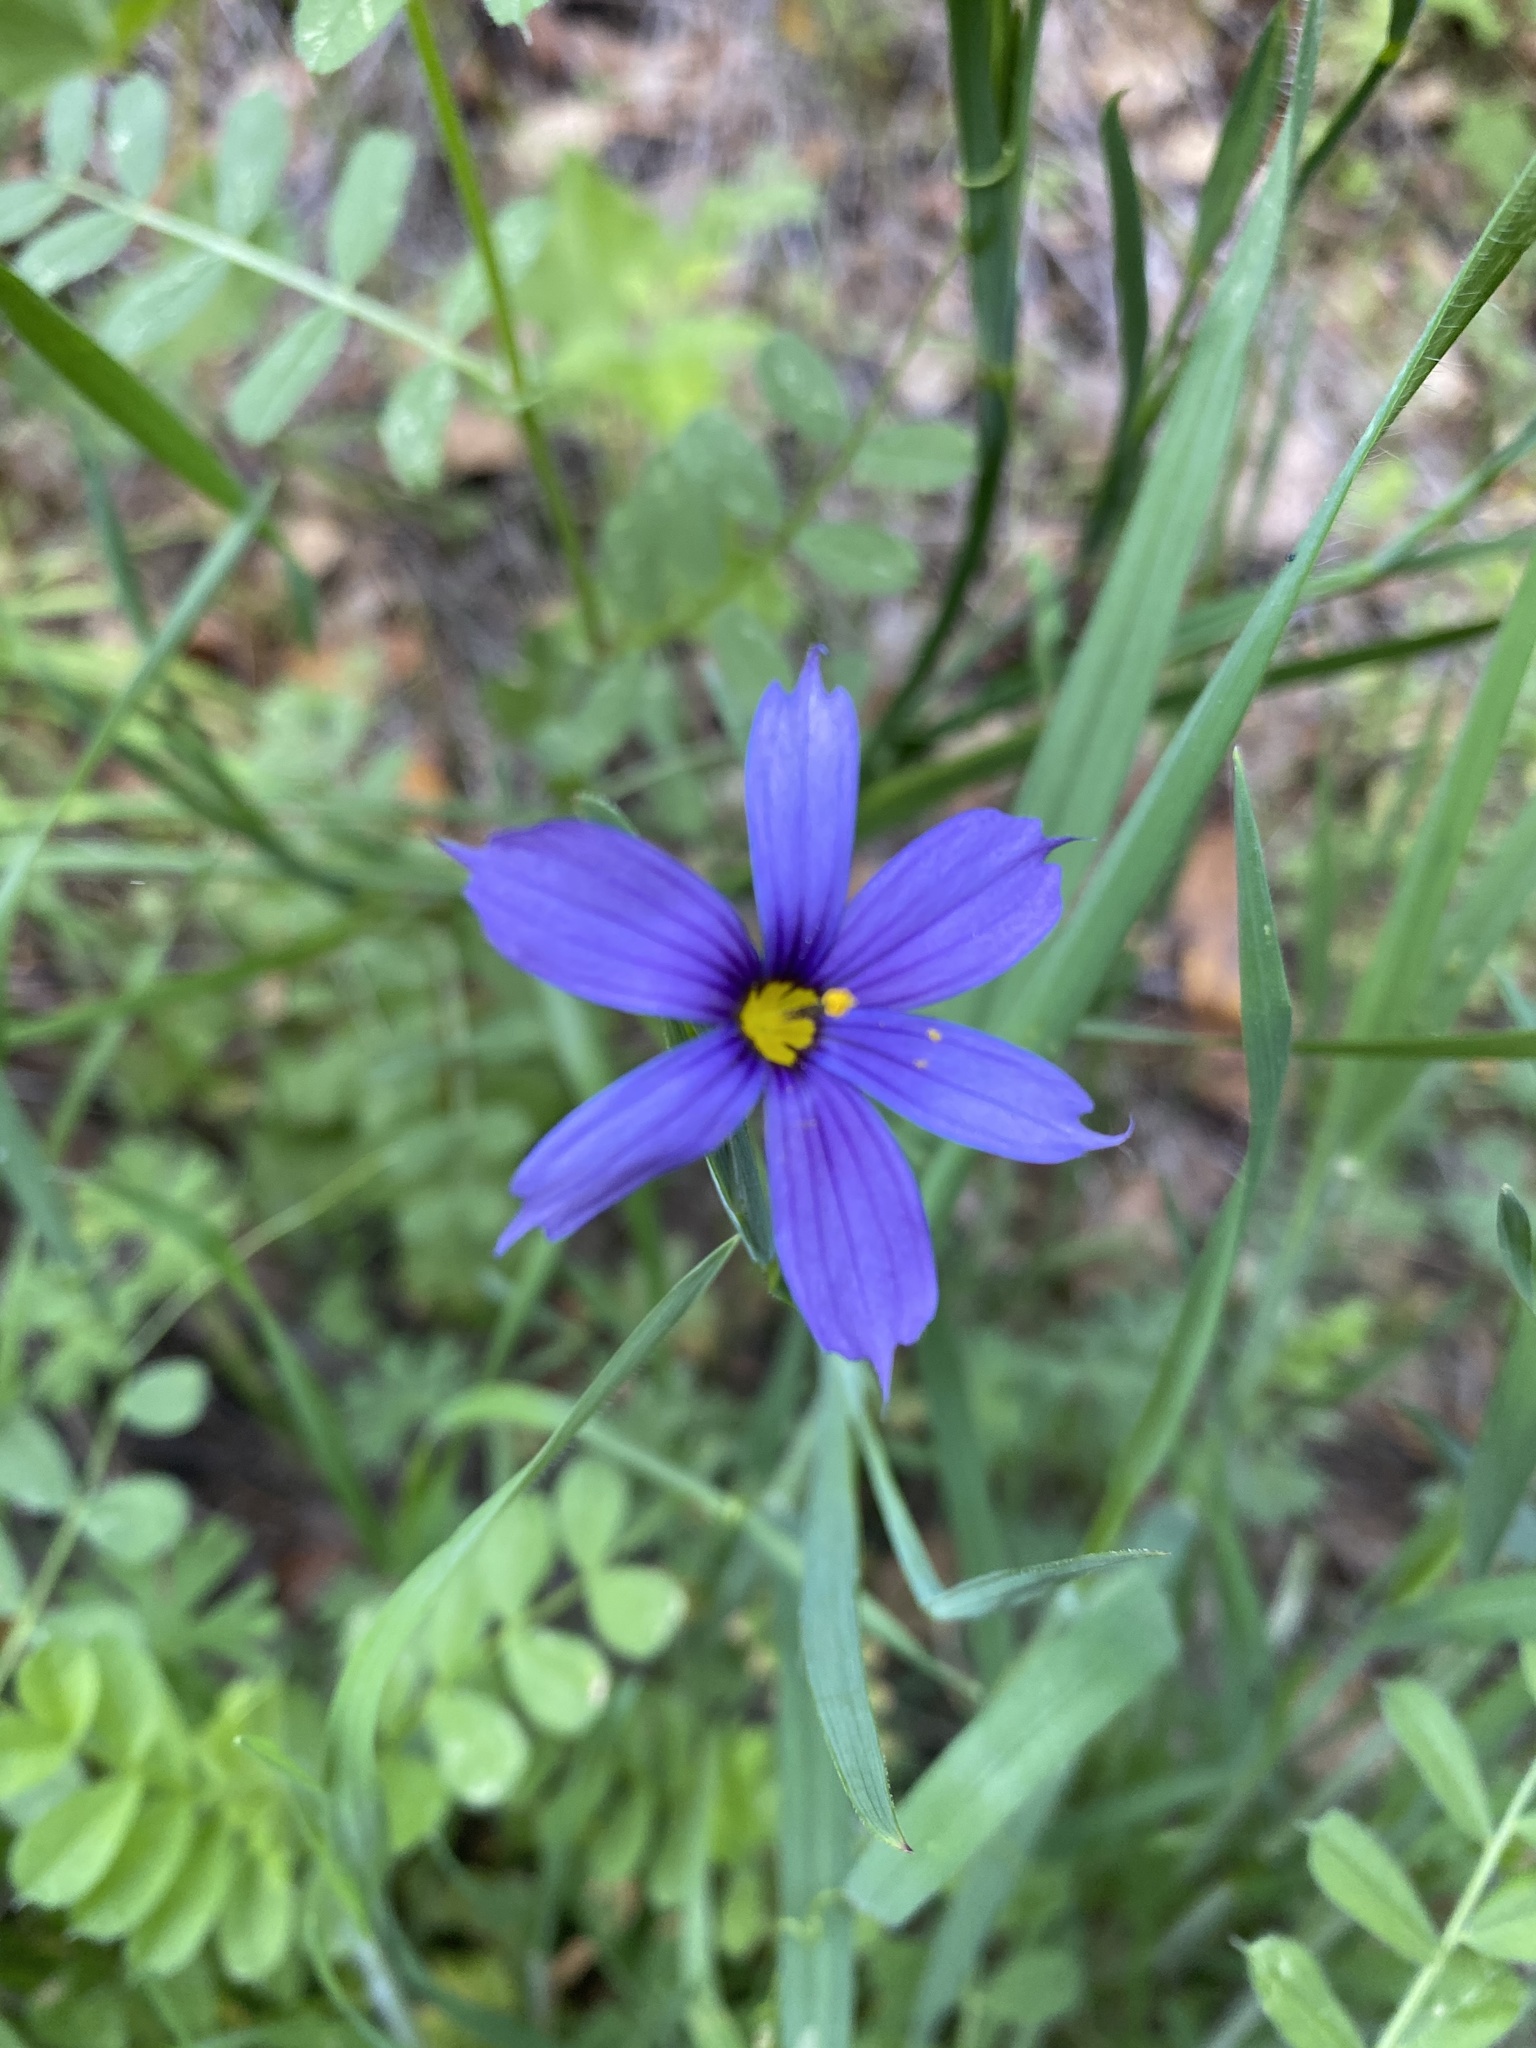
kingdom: Plantae
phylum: Tracheophyta
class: Liliopsida
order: Asparagales
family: Iridaceae
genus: Sisyrinchium
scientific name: Sisyrinchium bellum
